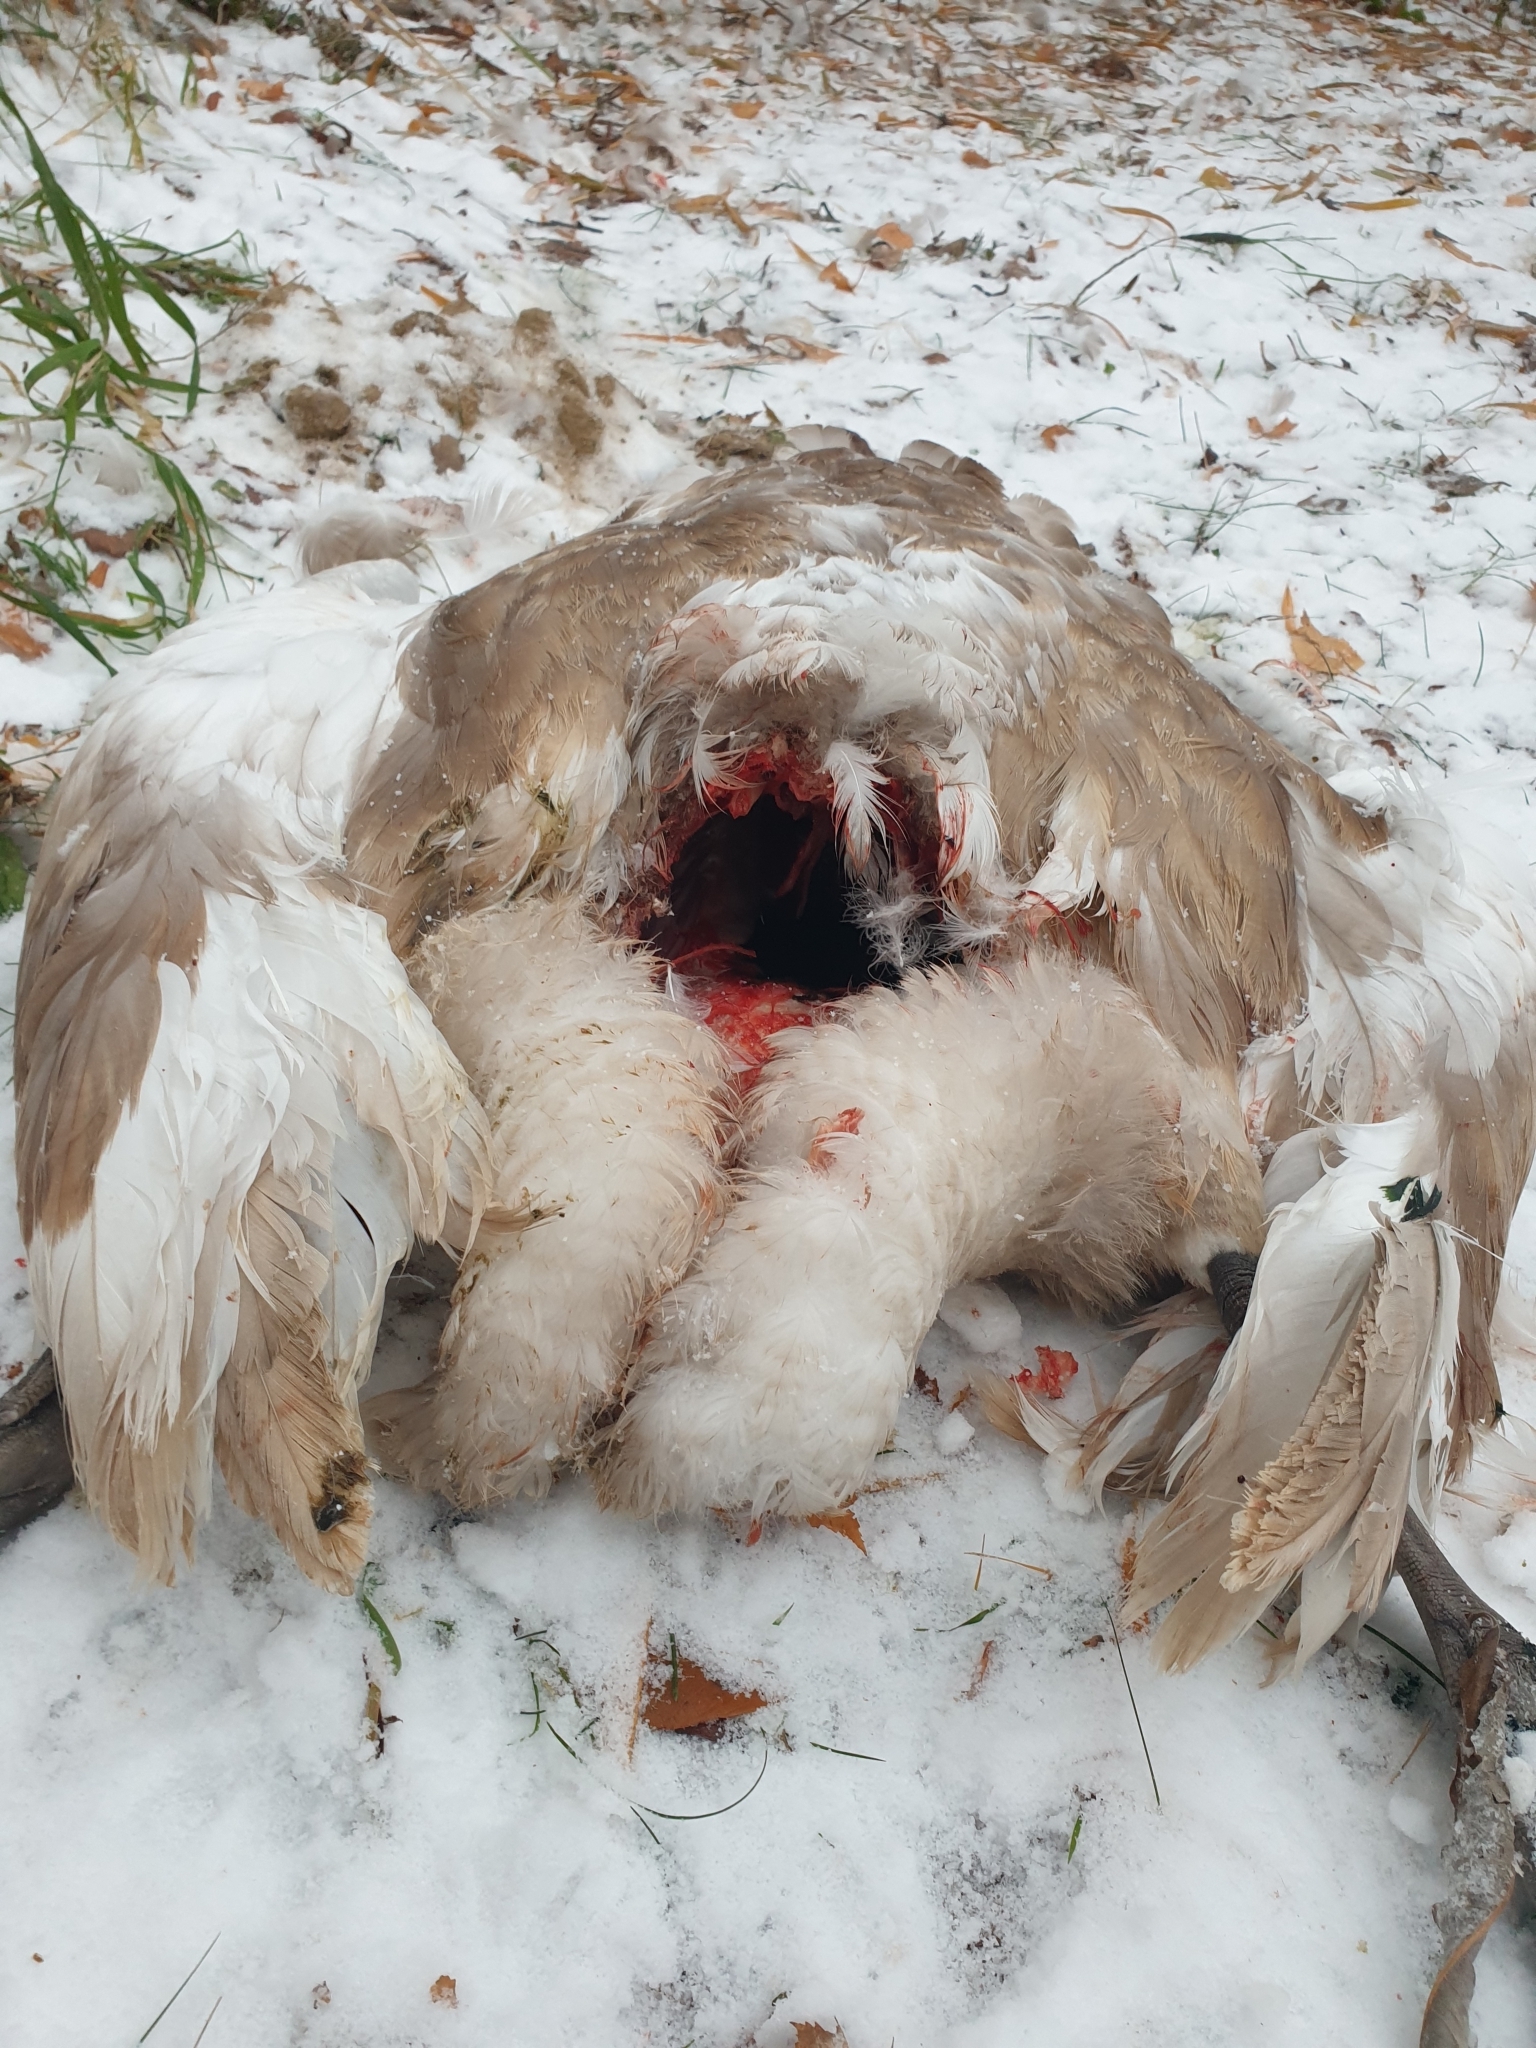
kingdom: Animalia
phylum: Chordata
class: Aves
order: Anseriformes
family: Anatidae
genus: Cygnus
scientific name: Cygnus olor
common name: Mute swan
